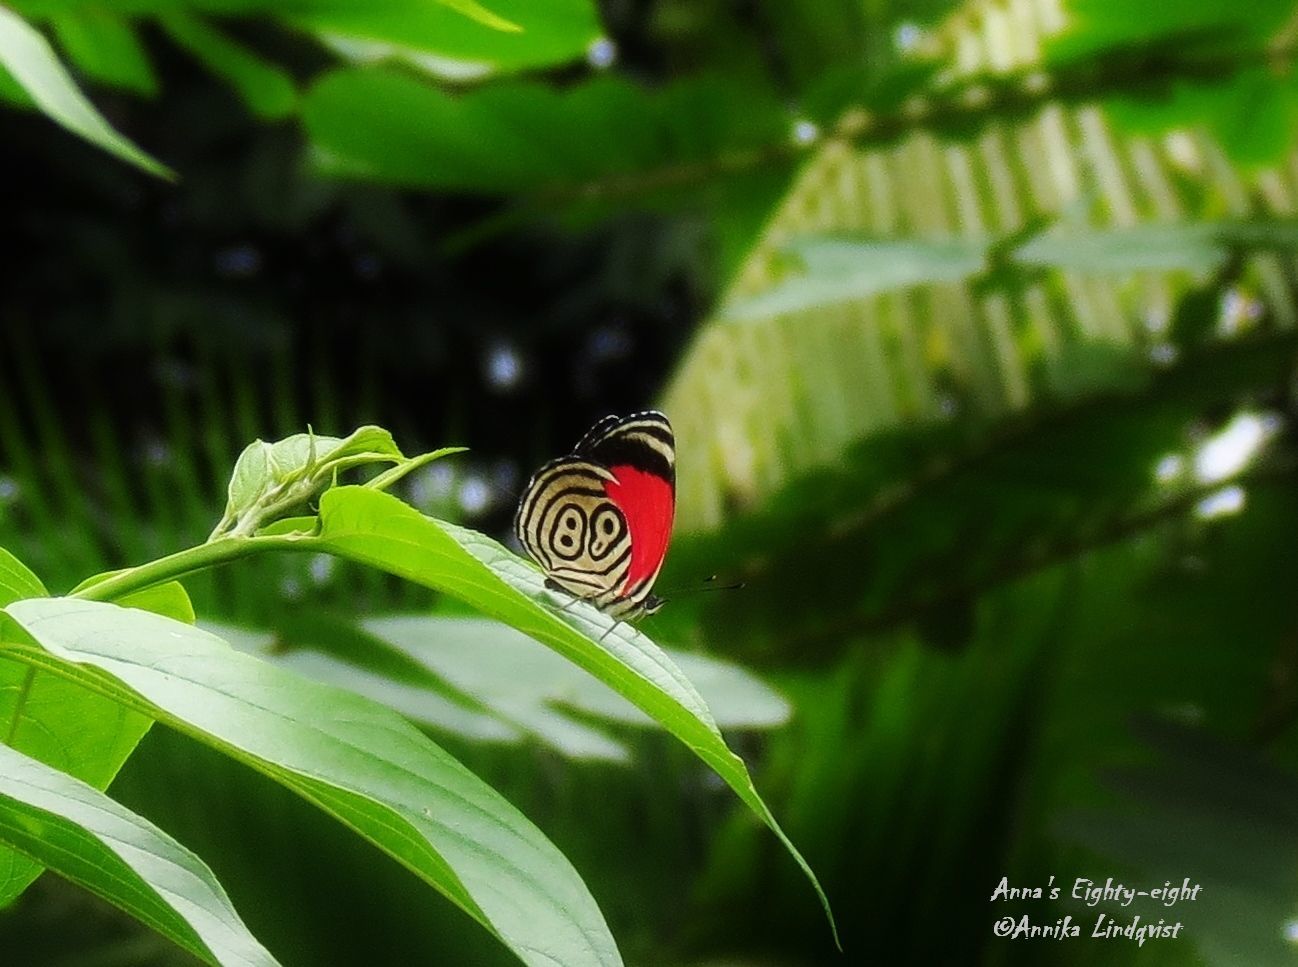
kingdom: Animalia
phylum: Arthropoda
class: Insecta
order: Lepidoptera
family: Nymphalidae
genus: Diaethria
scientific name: Diaethria anna
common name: Anna’s eighty-eight
